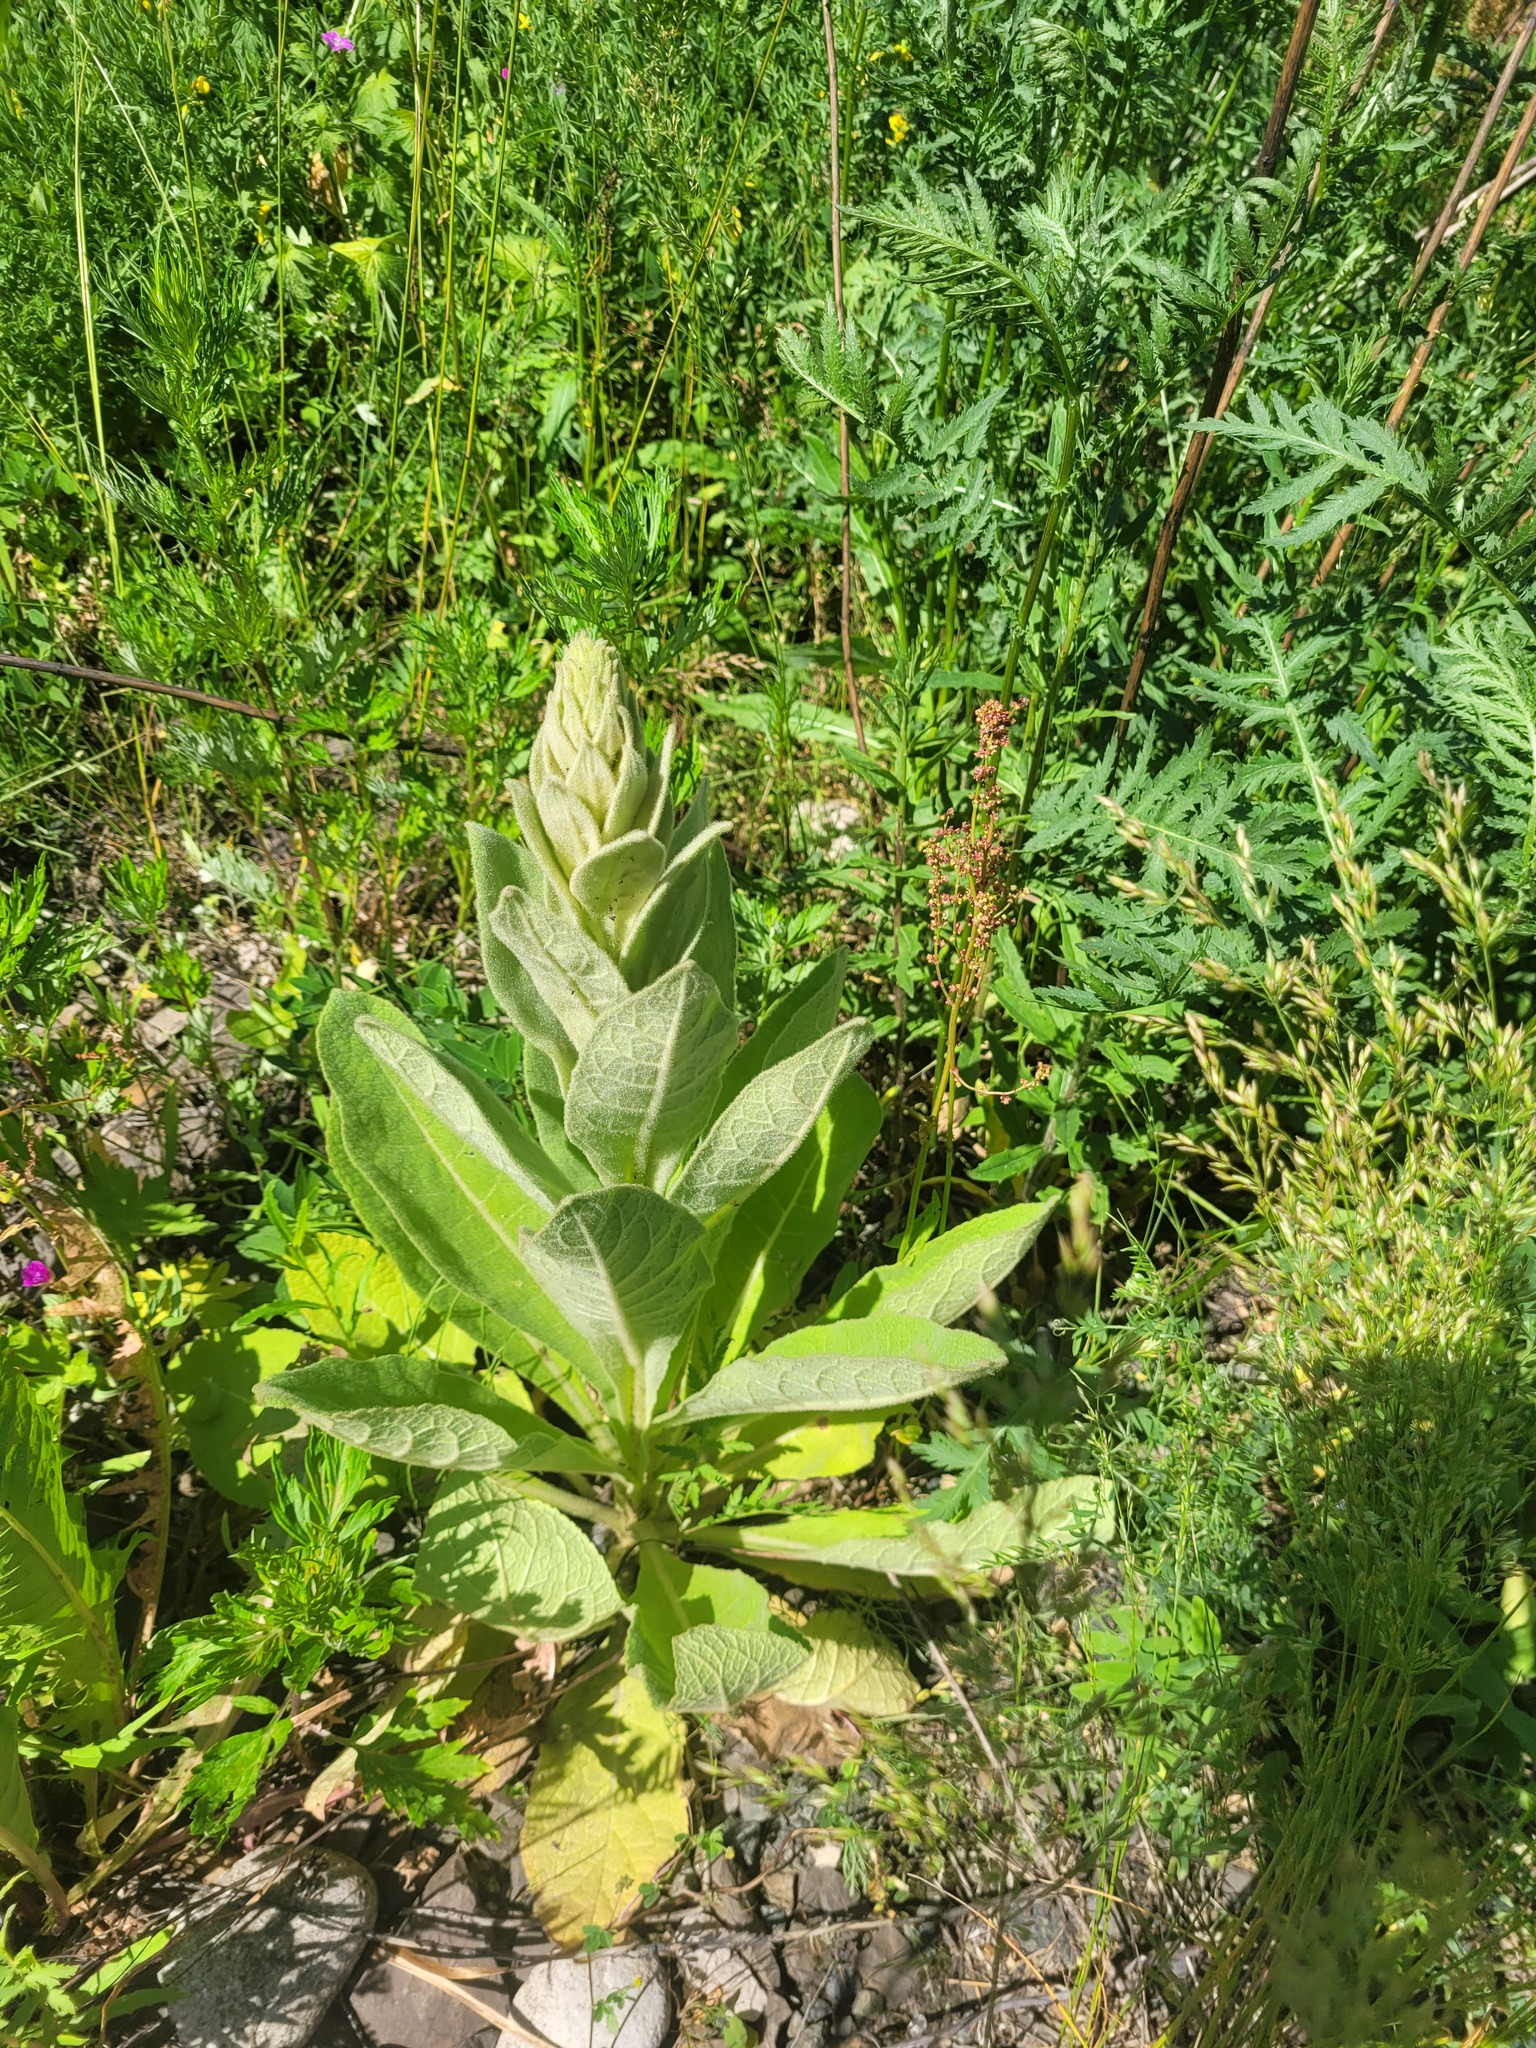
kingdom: Plantae
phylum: Tracheophyta
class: Magnoliopsida
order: Lamiales
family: Scrophulariaceae
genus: Verbascum
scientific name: Verbascum thapsus
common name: Common mullein
